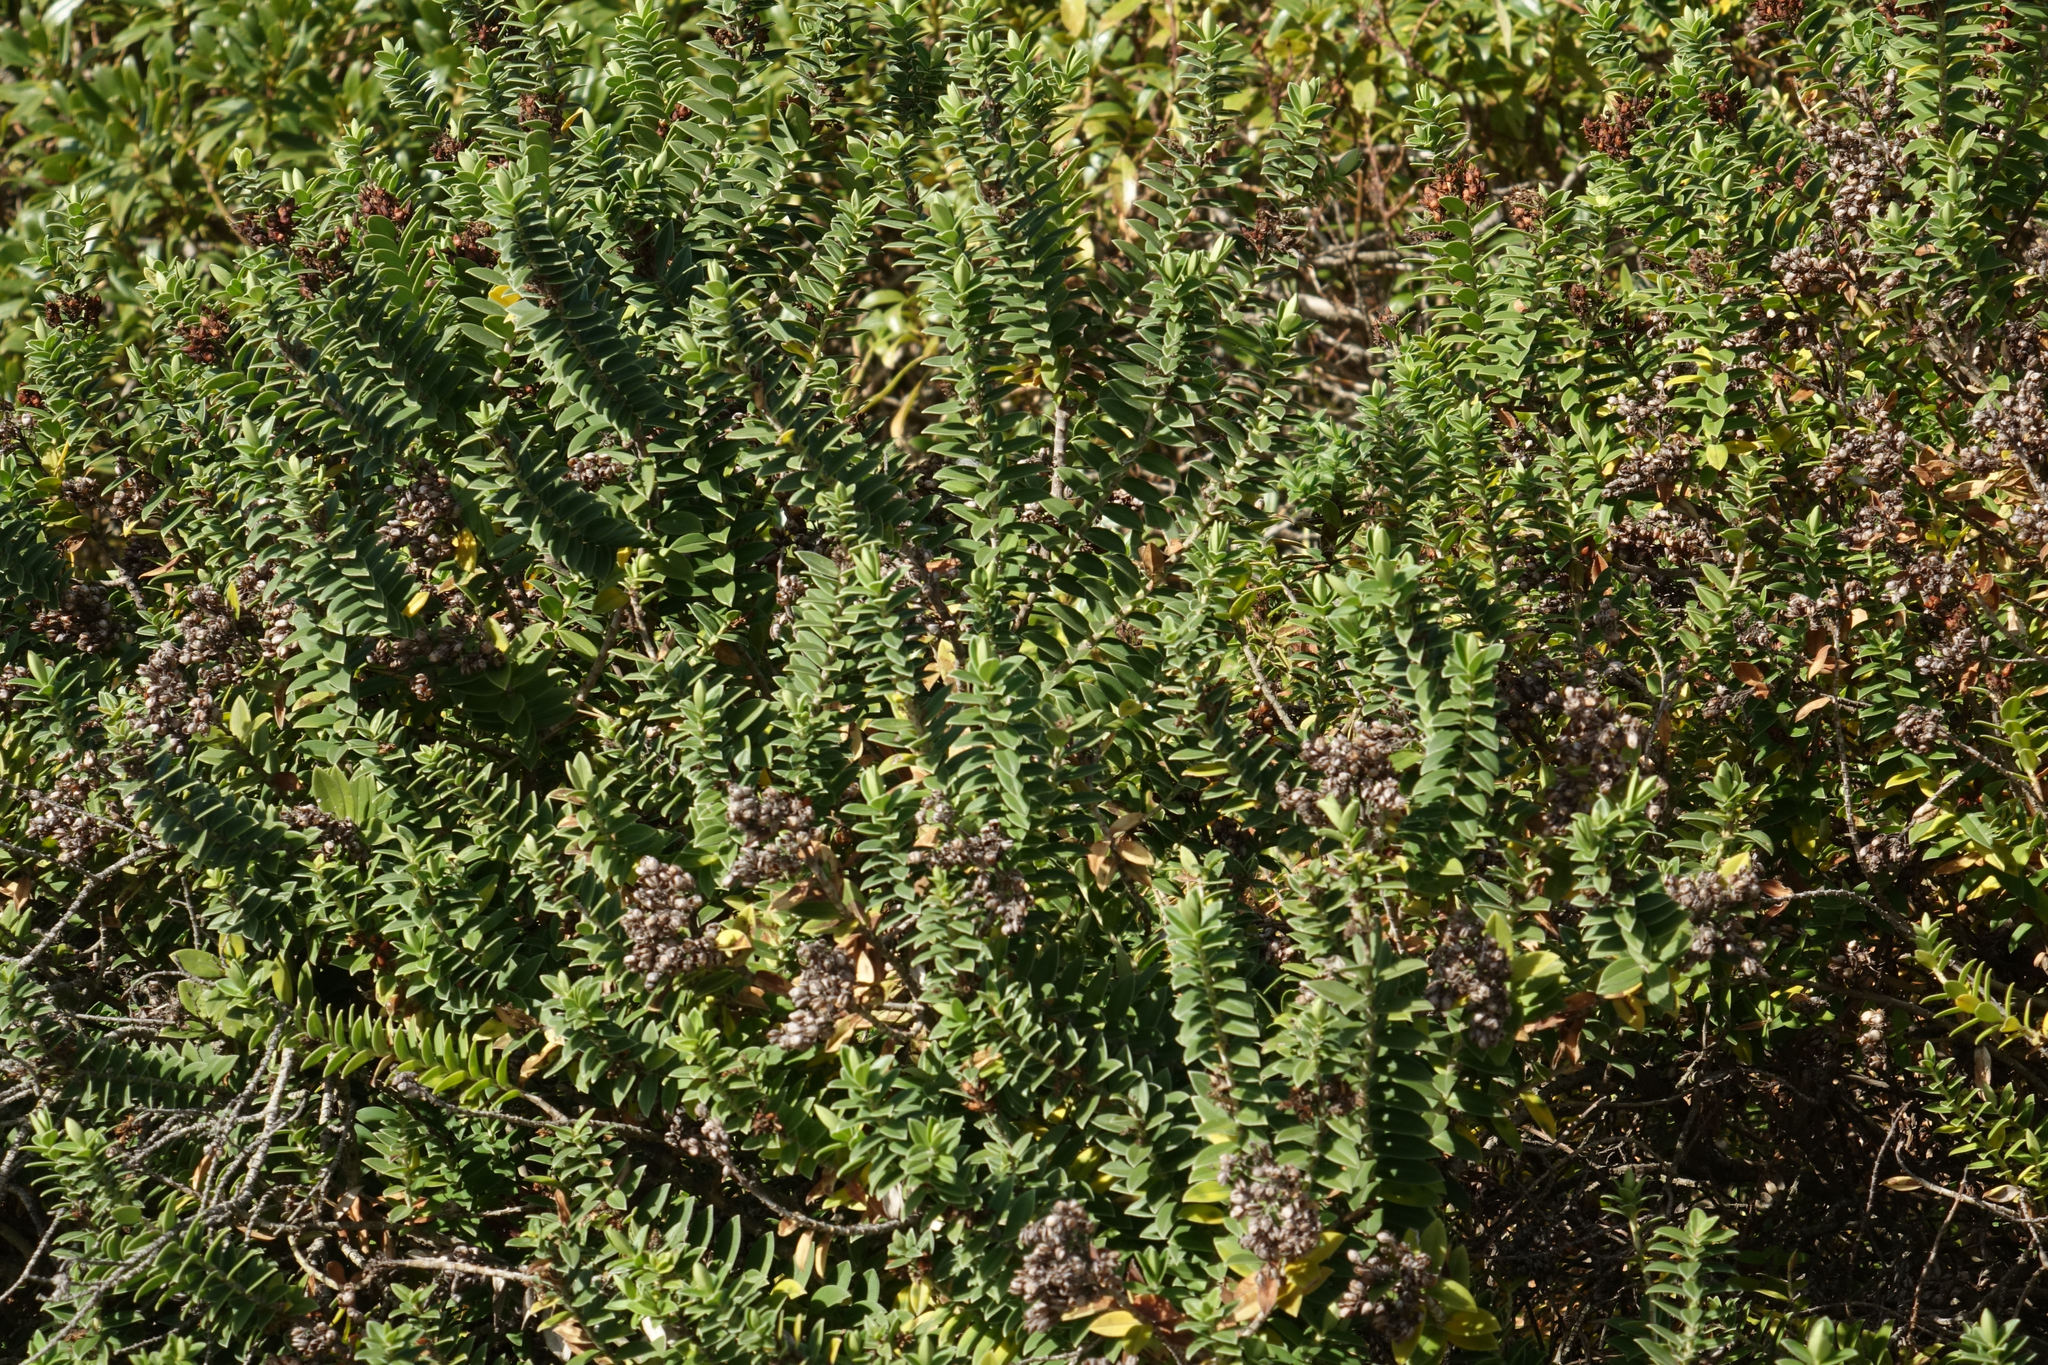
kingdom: Plantae
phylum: Tracheophyta
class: Magnoliopsida
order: Lamiales
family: Plantaginaceae
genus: Veronica
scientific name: Veronica elliptica
